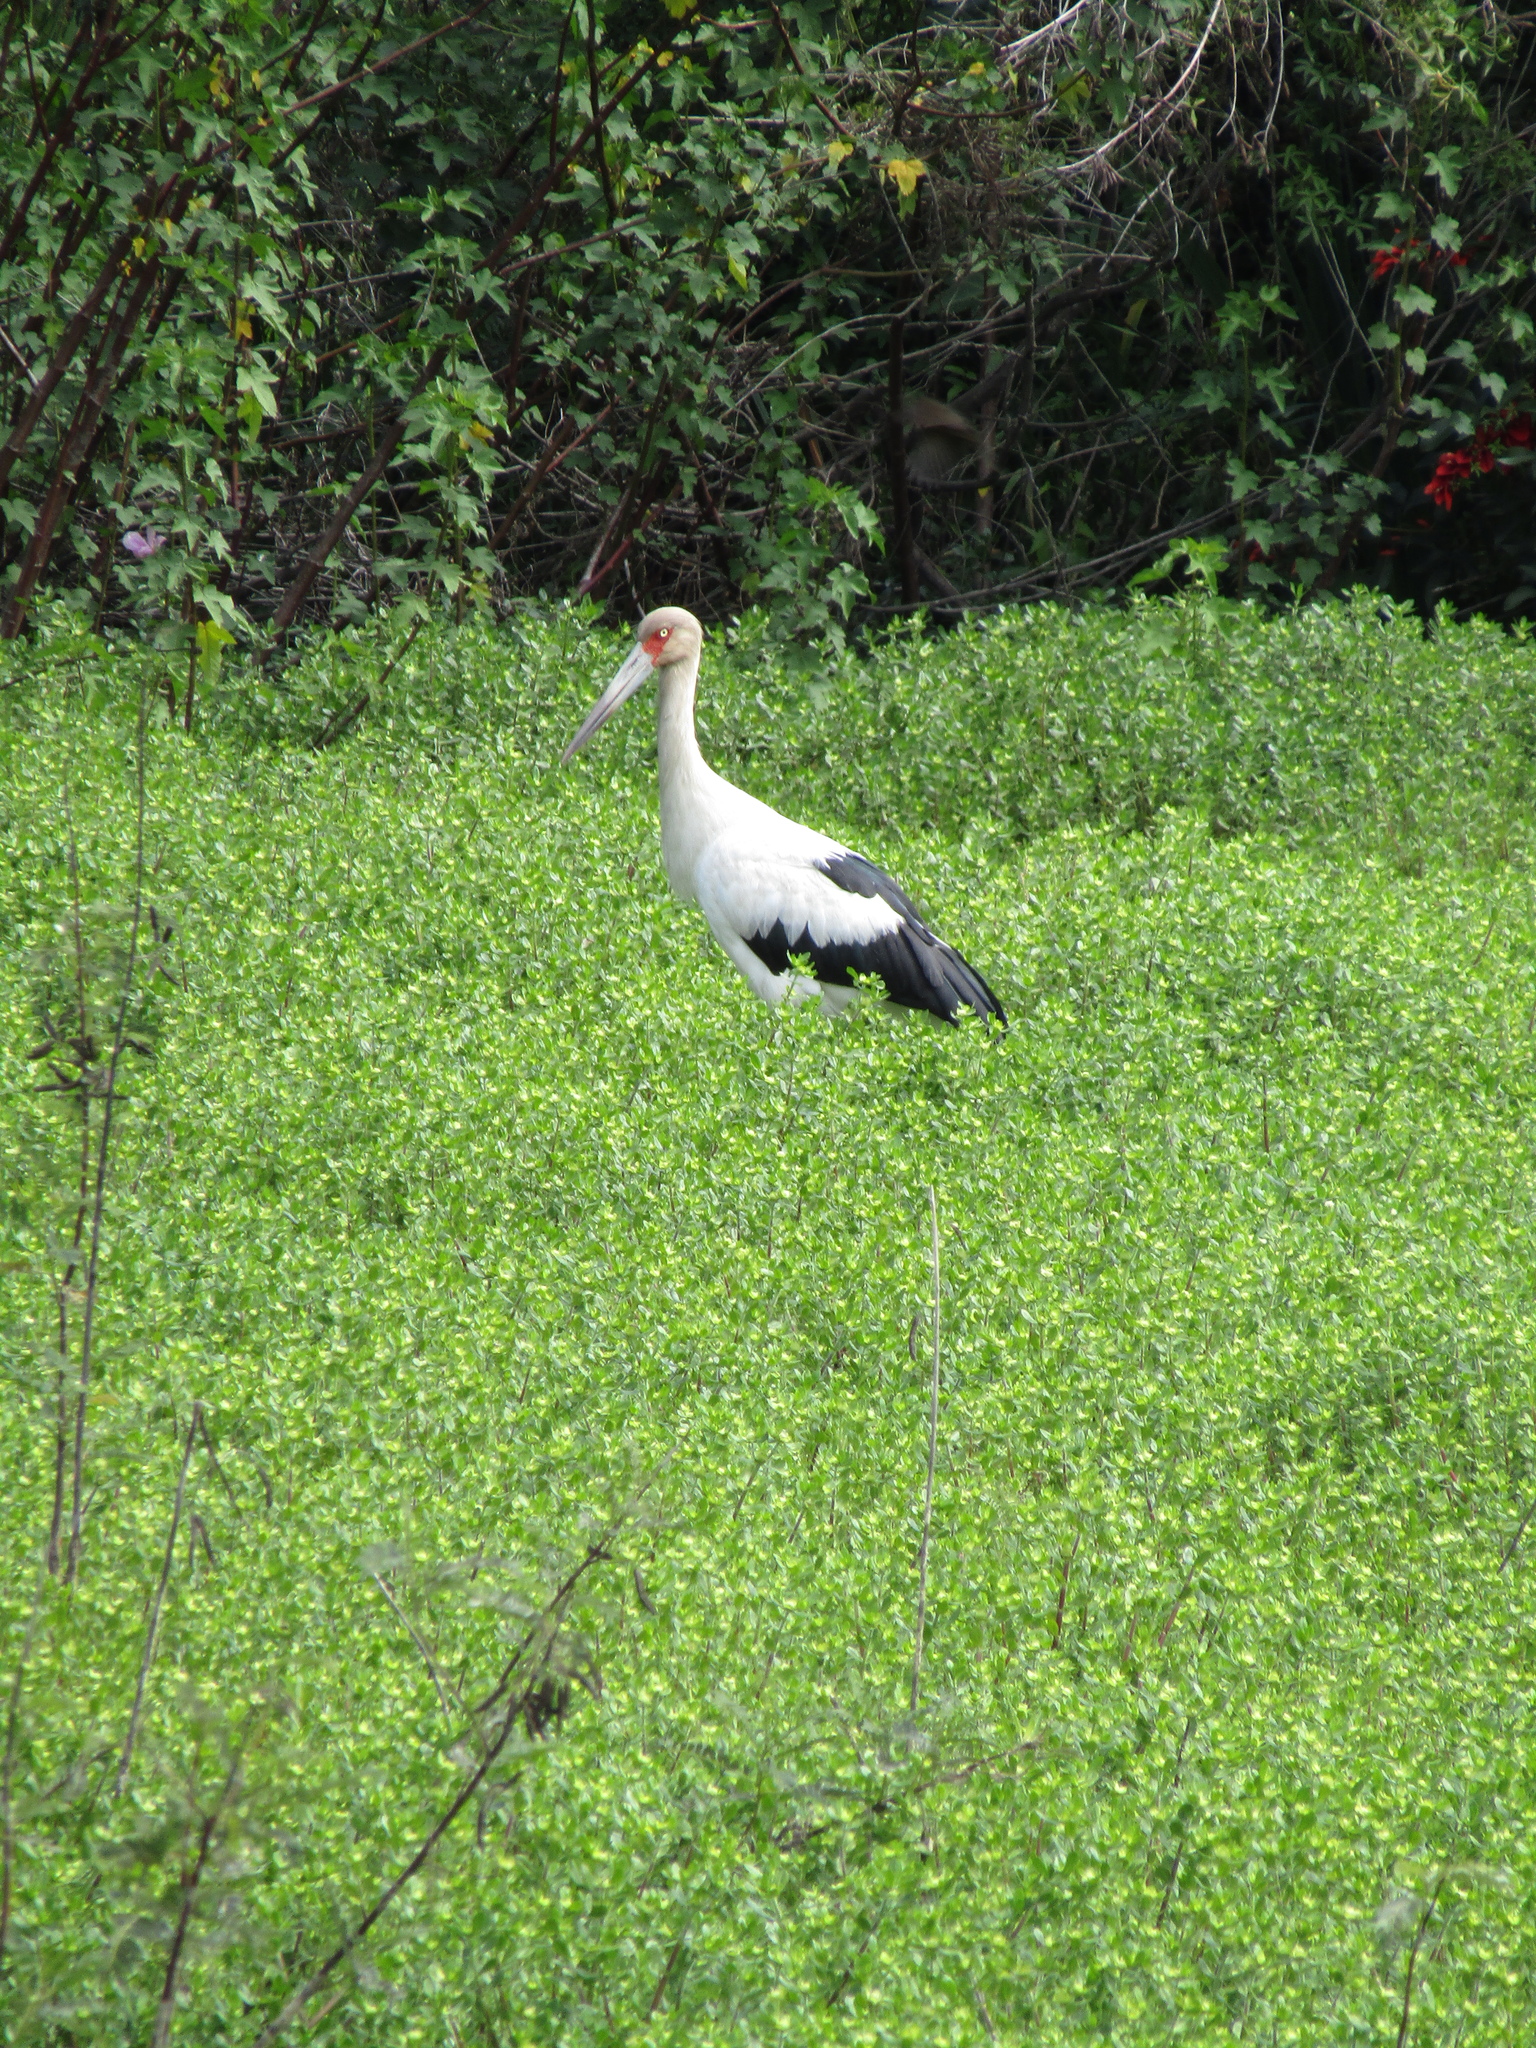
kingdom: Animalia
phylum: Chordata
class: Aves
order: Ciconiiformes
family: Ciconiidae
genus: Ciconia
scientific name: Ciconia maguari
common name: Maguari stork
